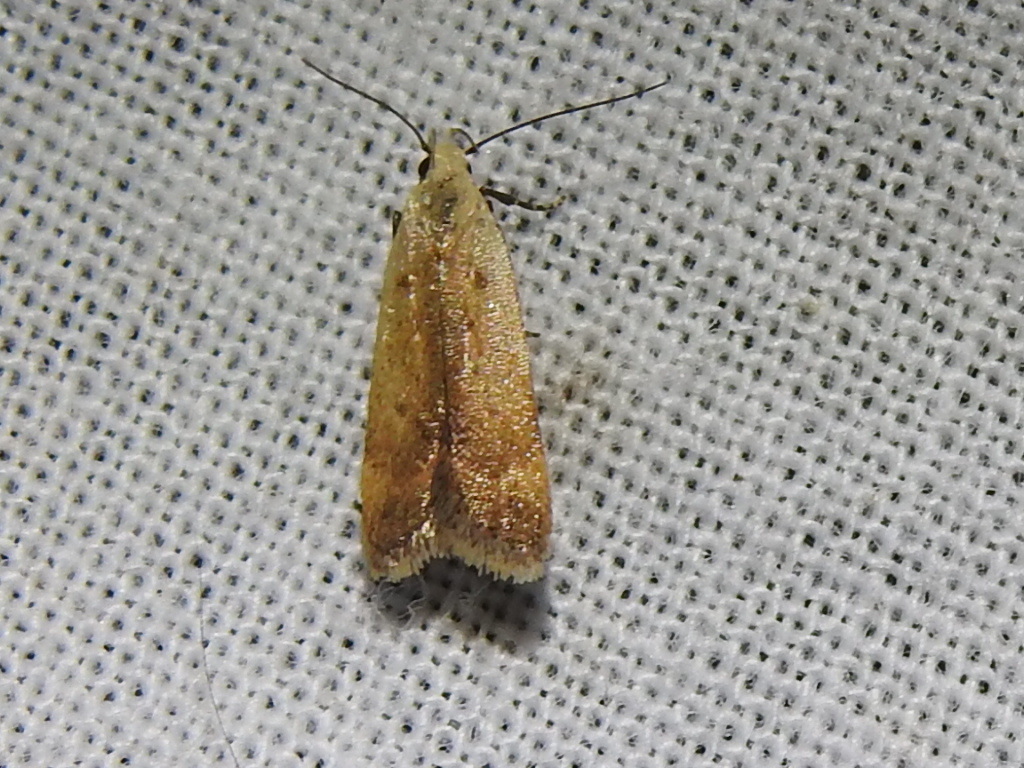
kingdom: Animalia
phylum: Arthropoda
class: Insecta
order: Lepidoptera
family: Gelechiidae
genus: Anacampsis
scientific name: Anacampsis fullonella
